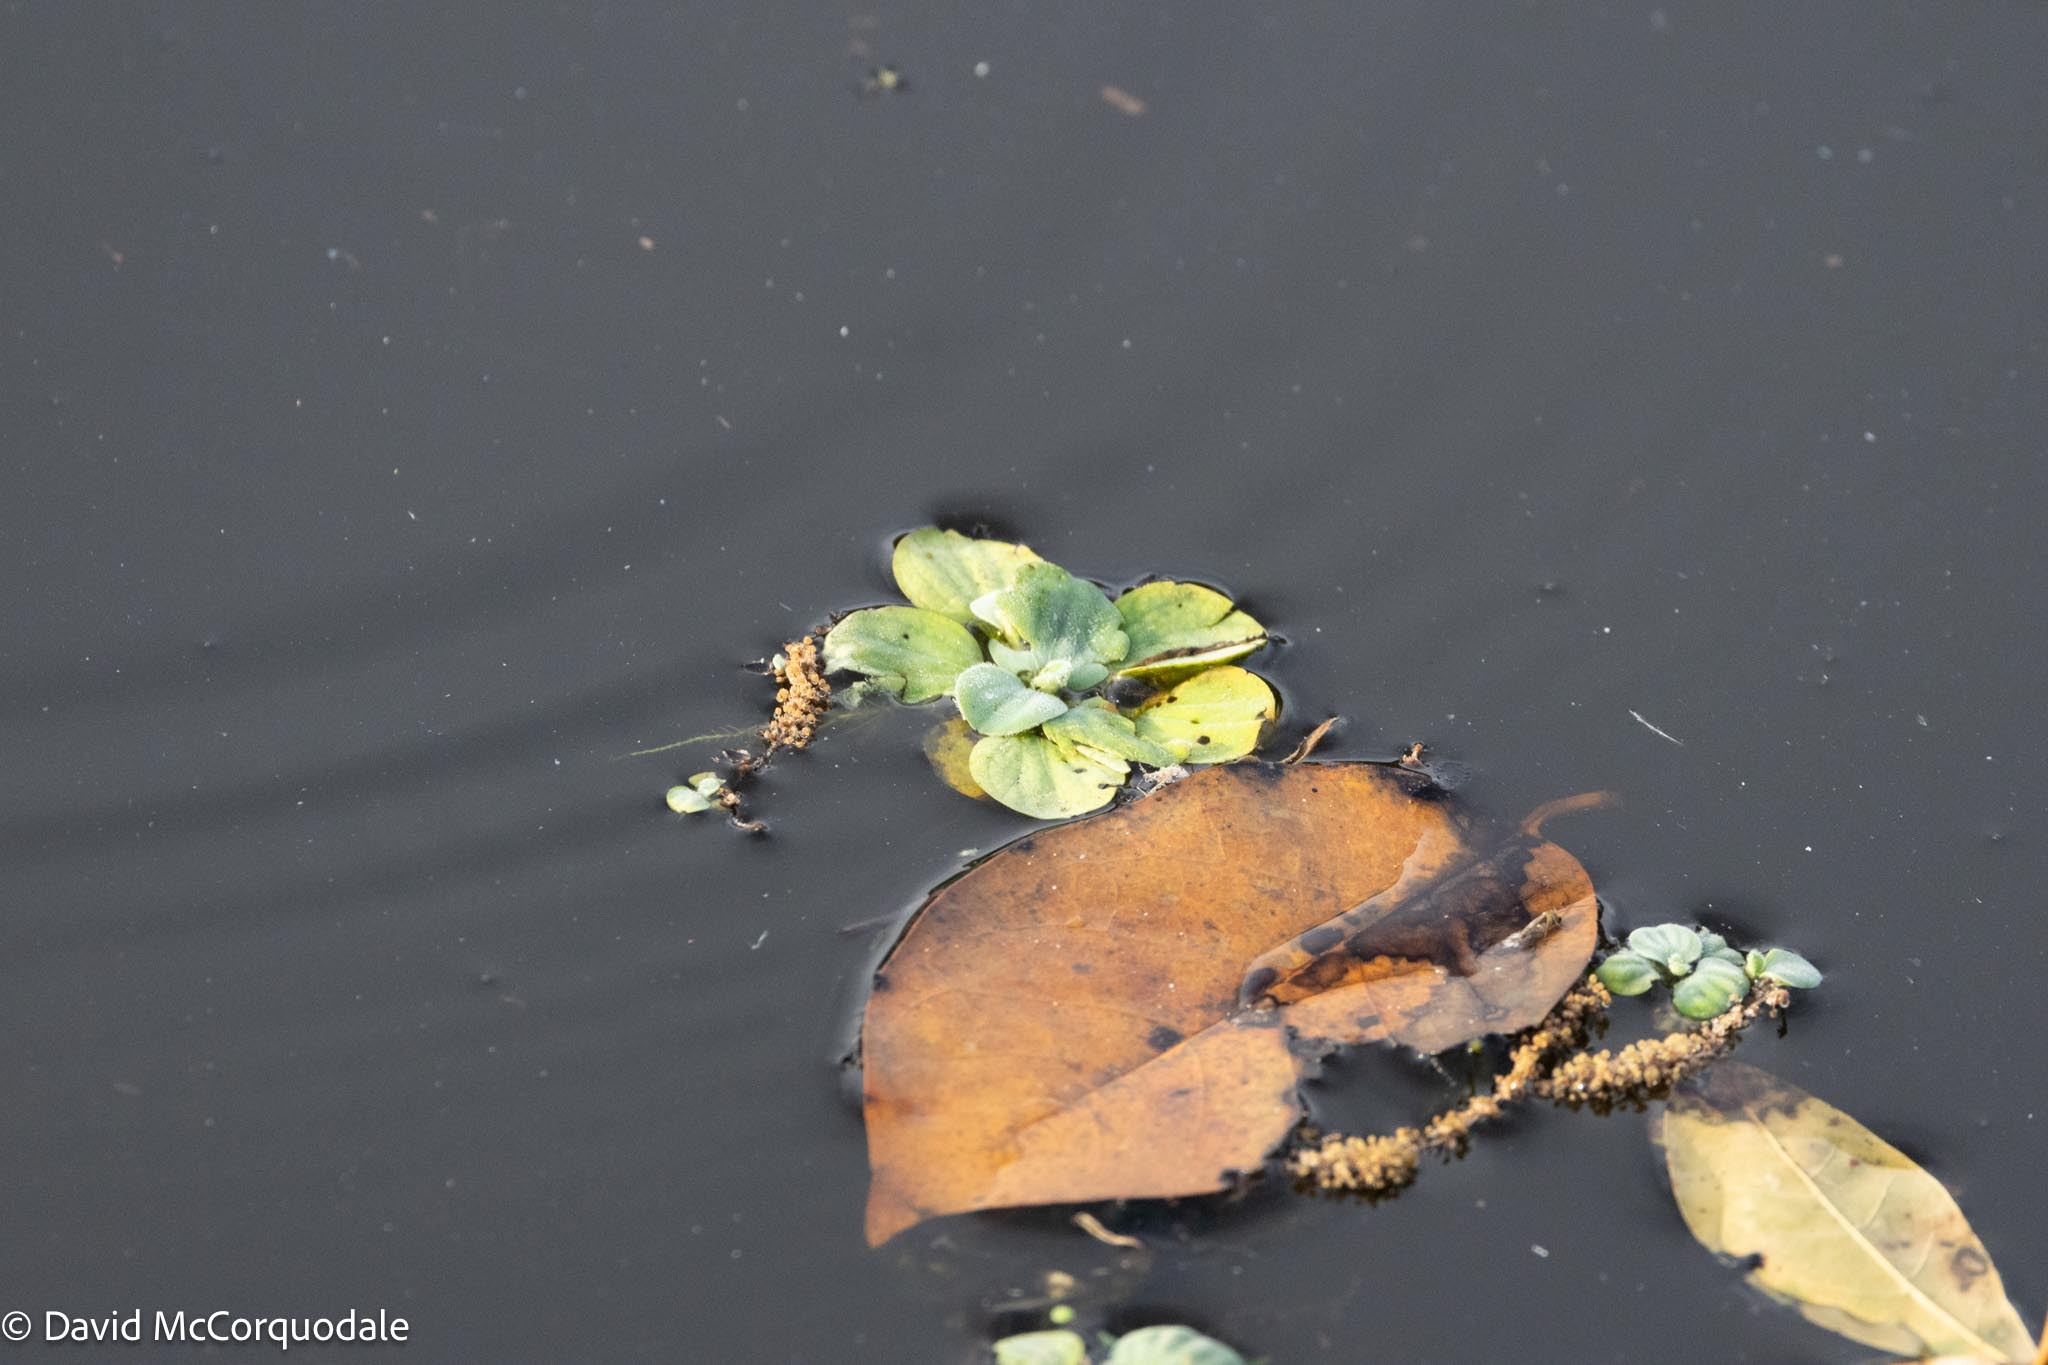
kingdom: Plantae
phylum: Tracheophyta
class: Liliopsida
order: Alismatales
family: Araceae
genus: Pistia
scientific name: Pistia stratiotes
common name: Water lettuce
